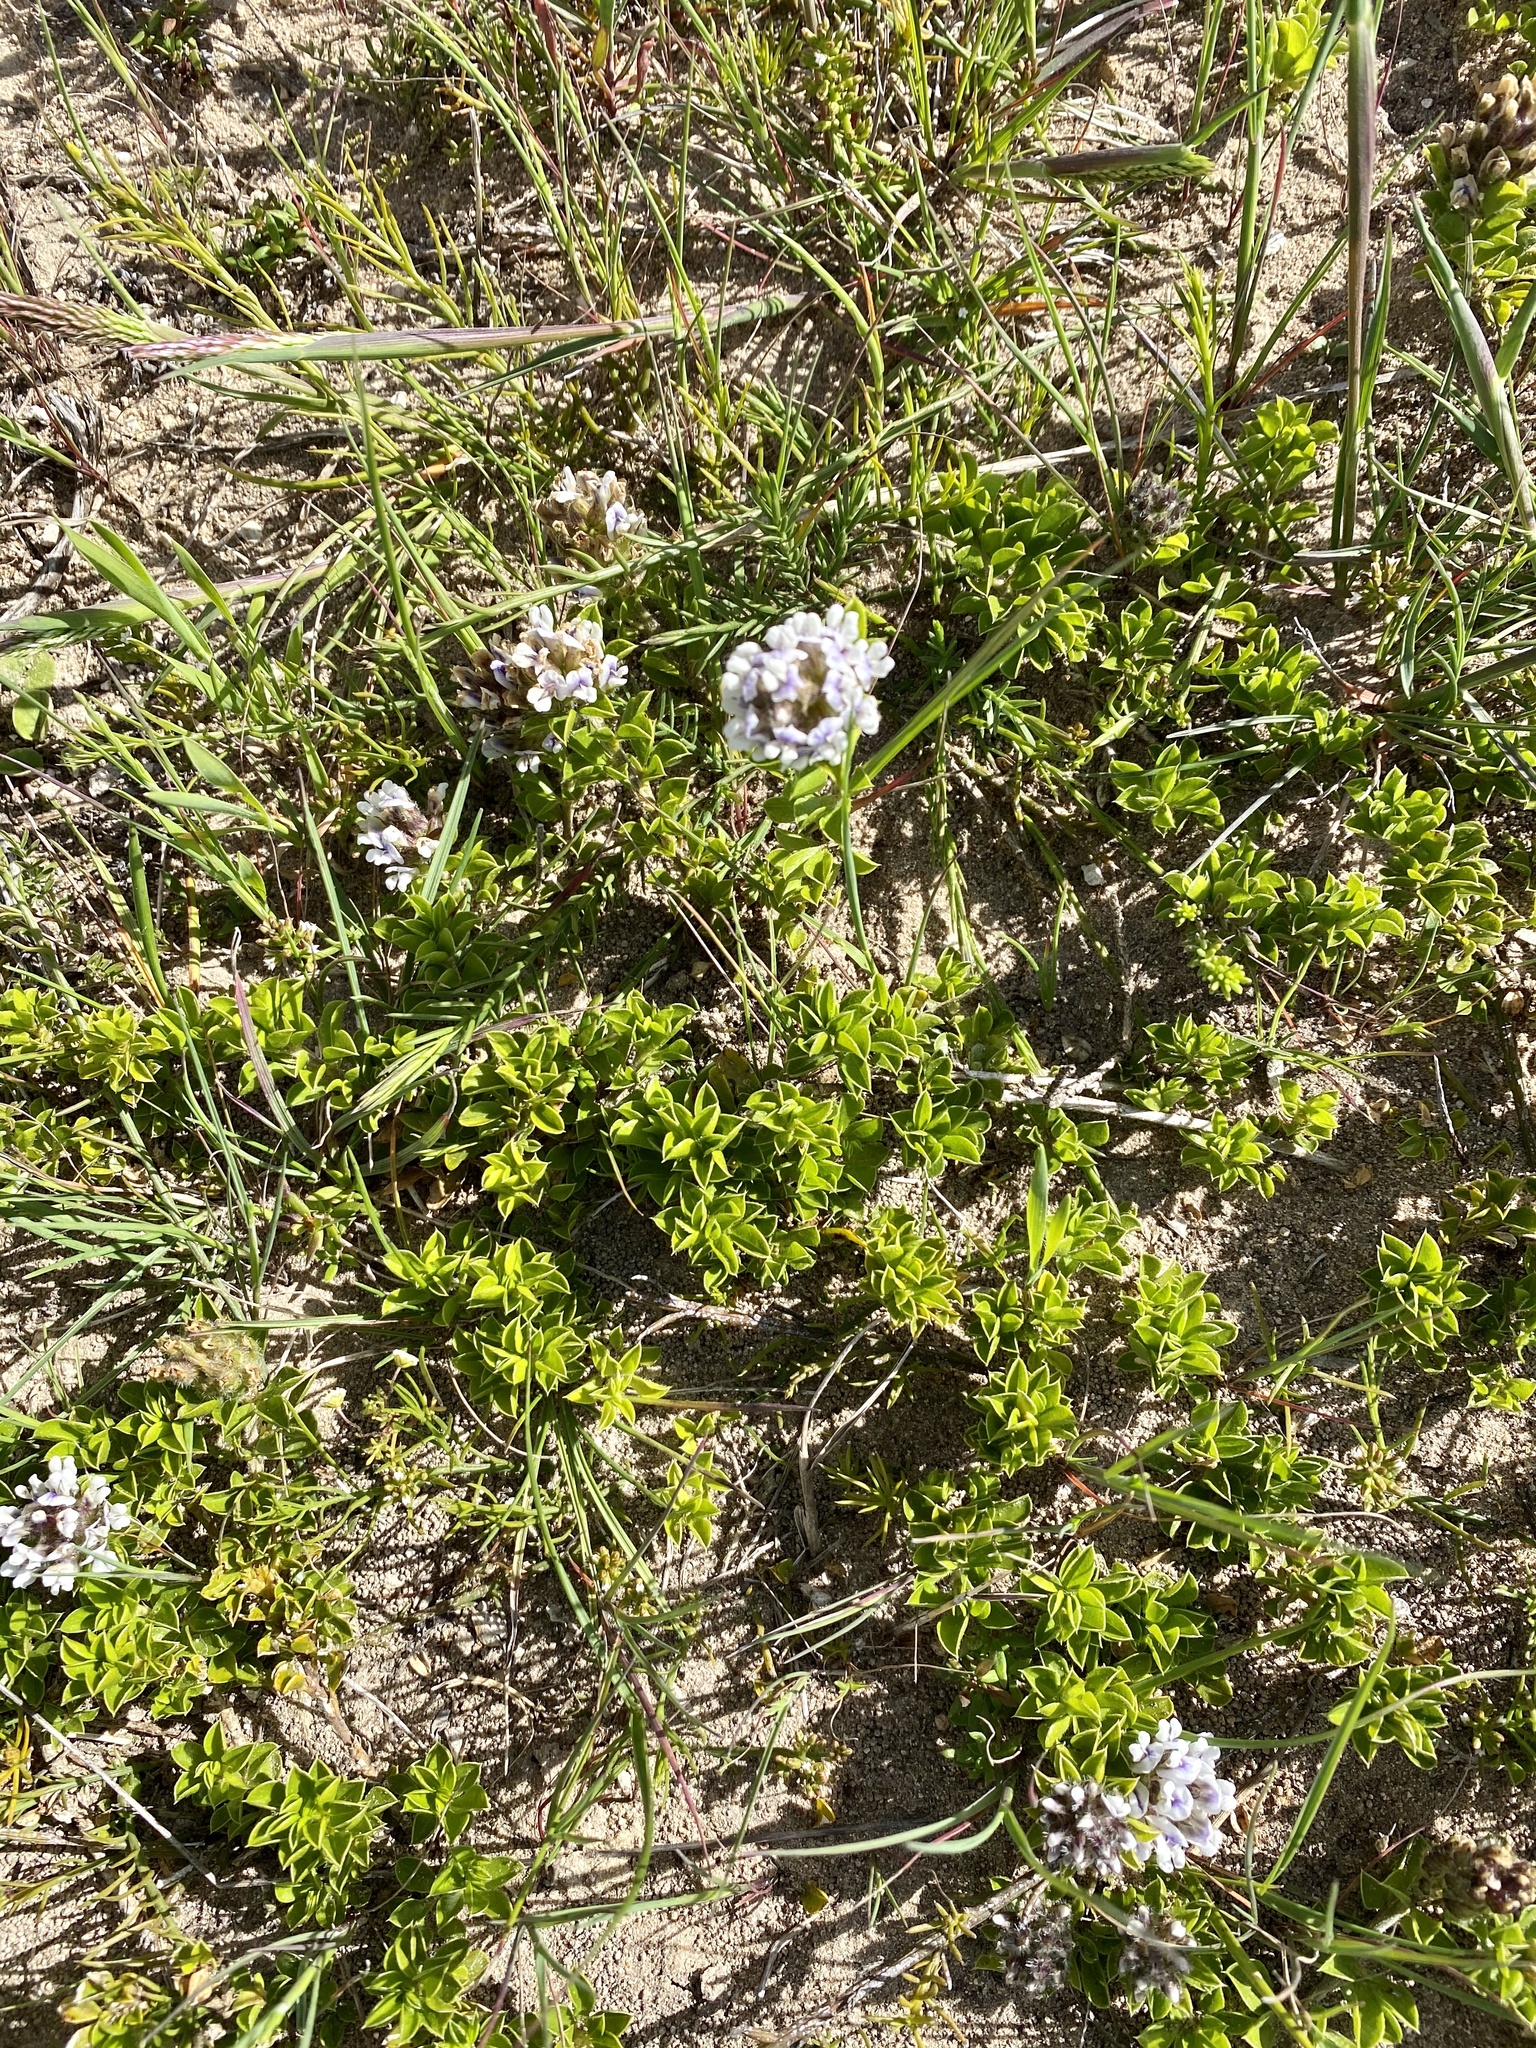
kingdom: Plantae
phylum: Tracheophyta
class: Magnoliopsida
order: Fabales
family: Fabaceae
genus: Psoralea
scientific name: Psoralea sabulosa
